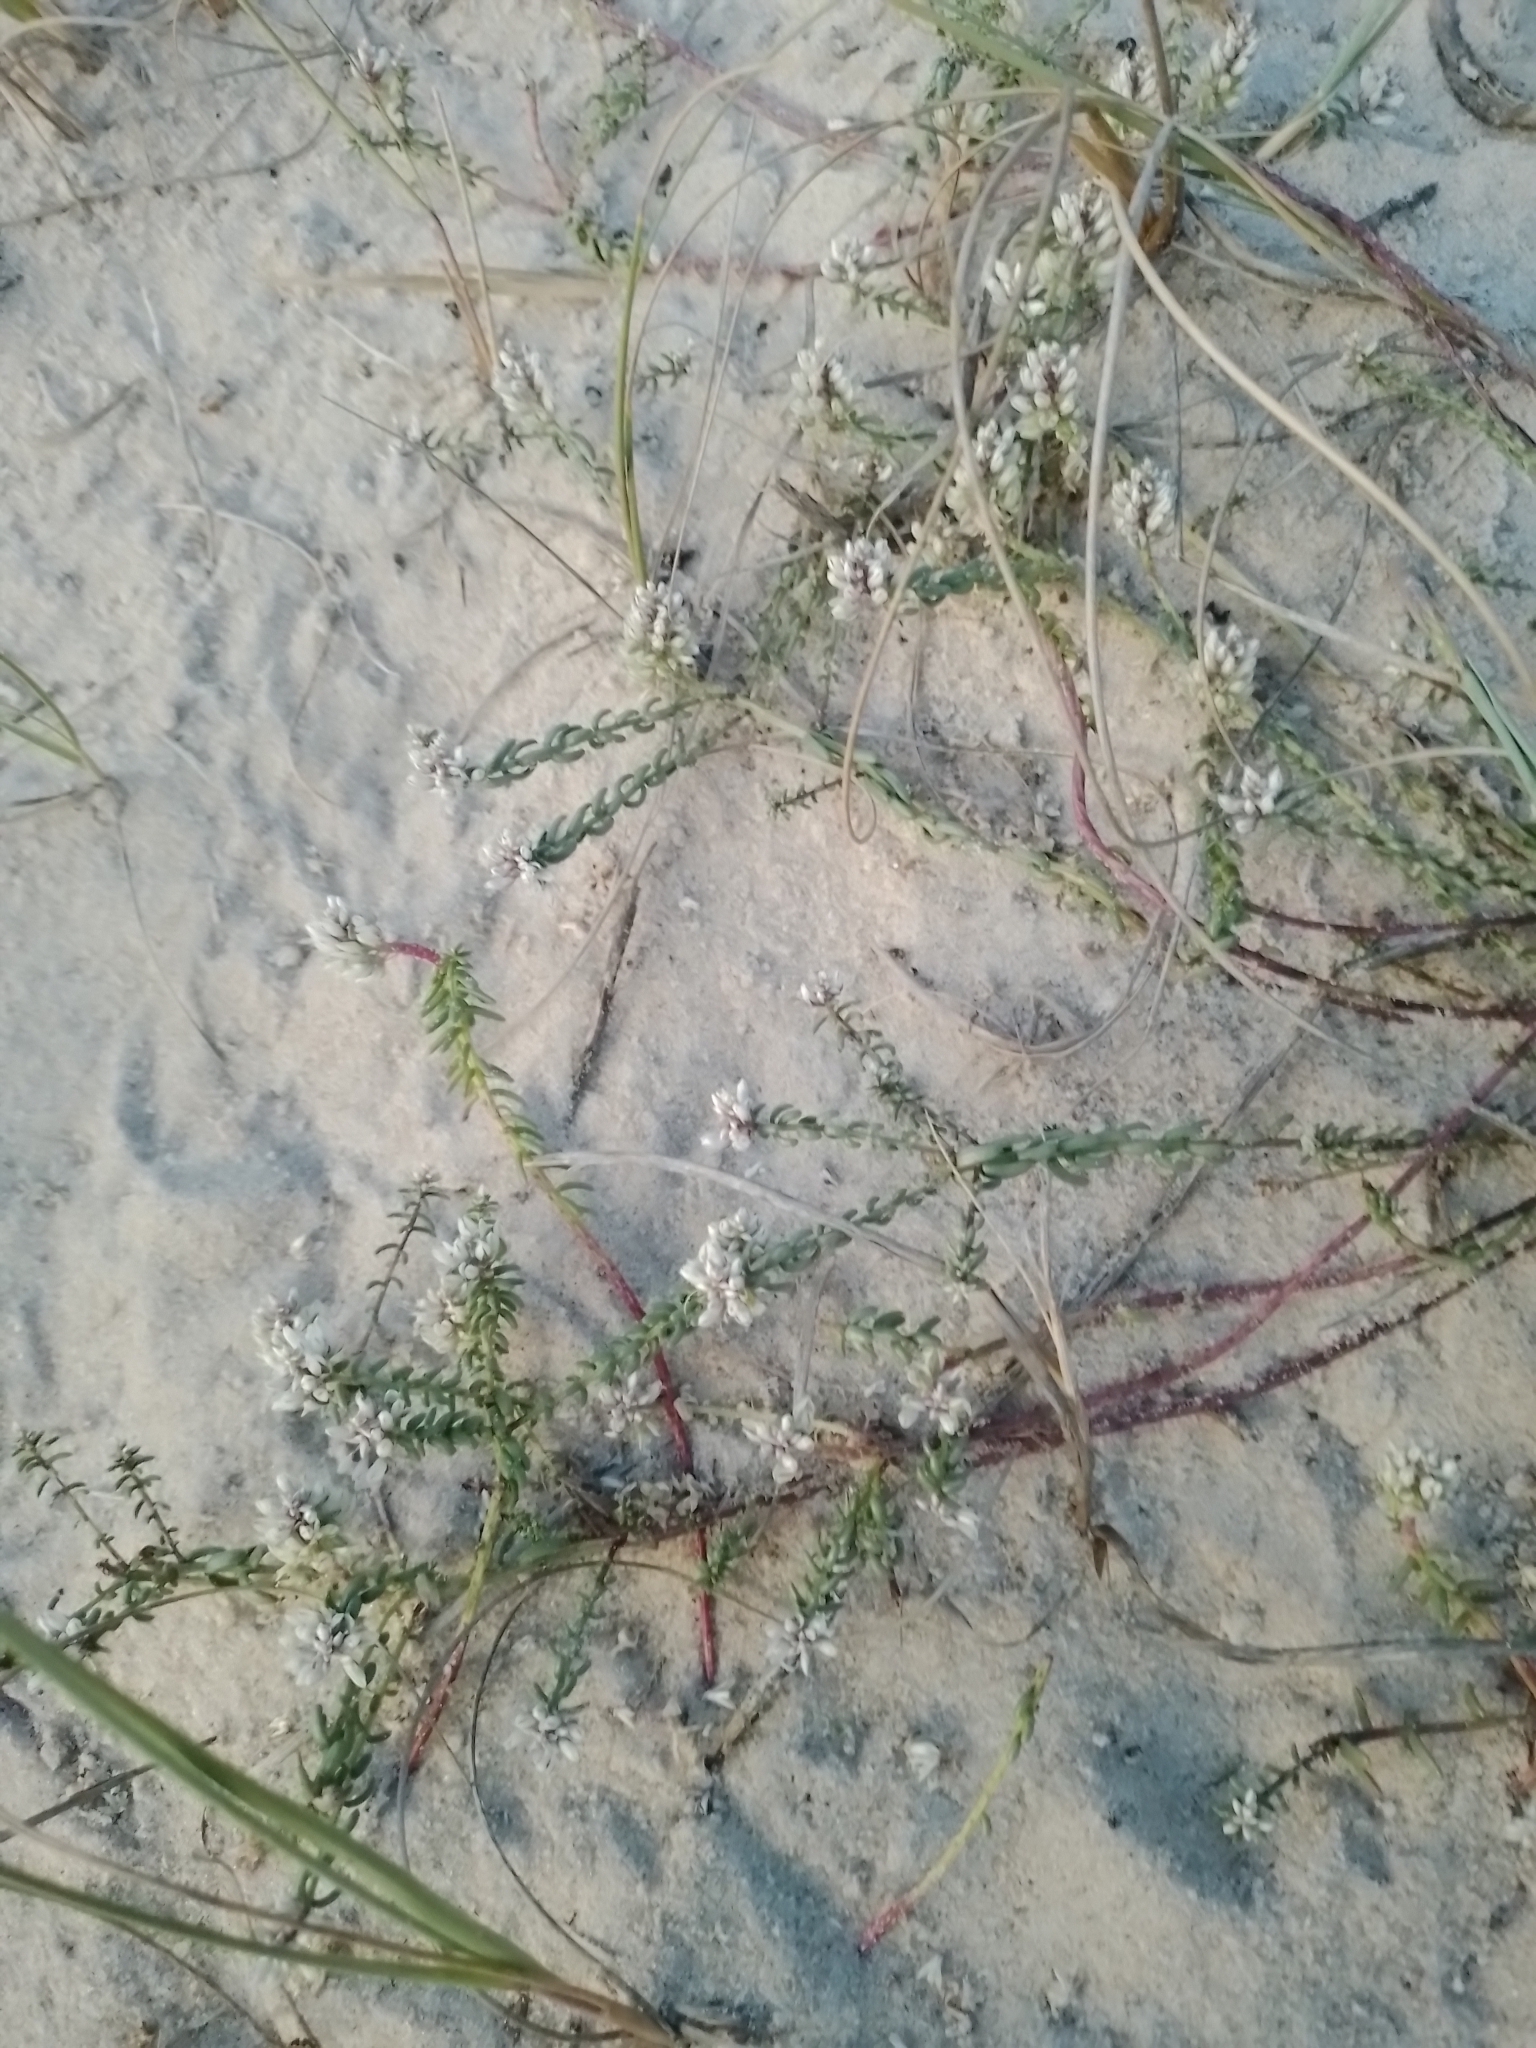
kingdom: Plantae
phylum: Tracheophyta
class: Magnoliopsida
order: Fabales
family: Polygalaceae
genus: Polygala
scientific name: Polygala cyparissias
